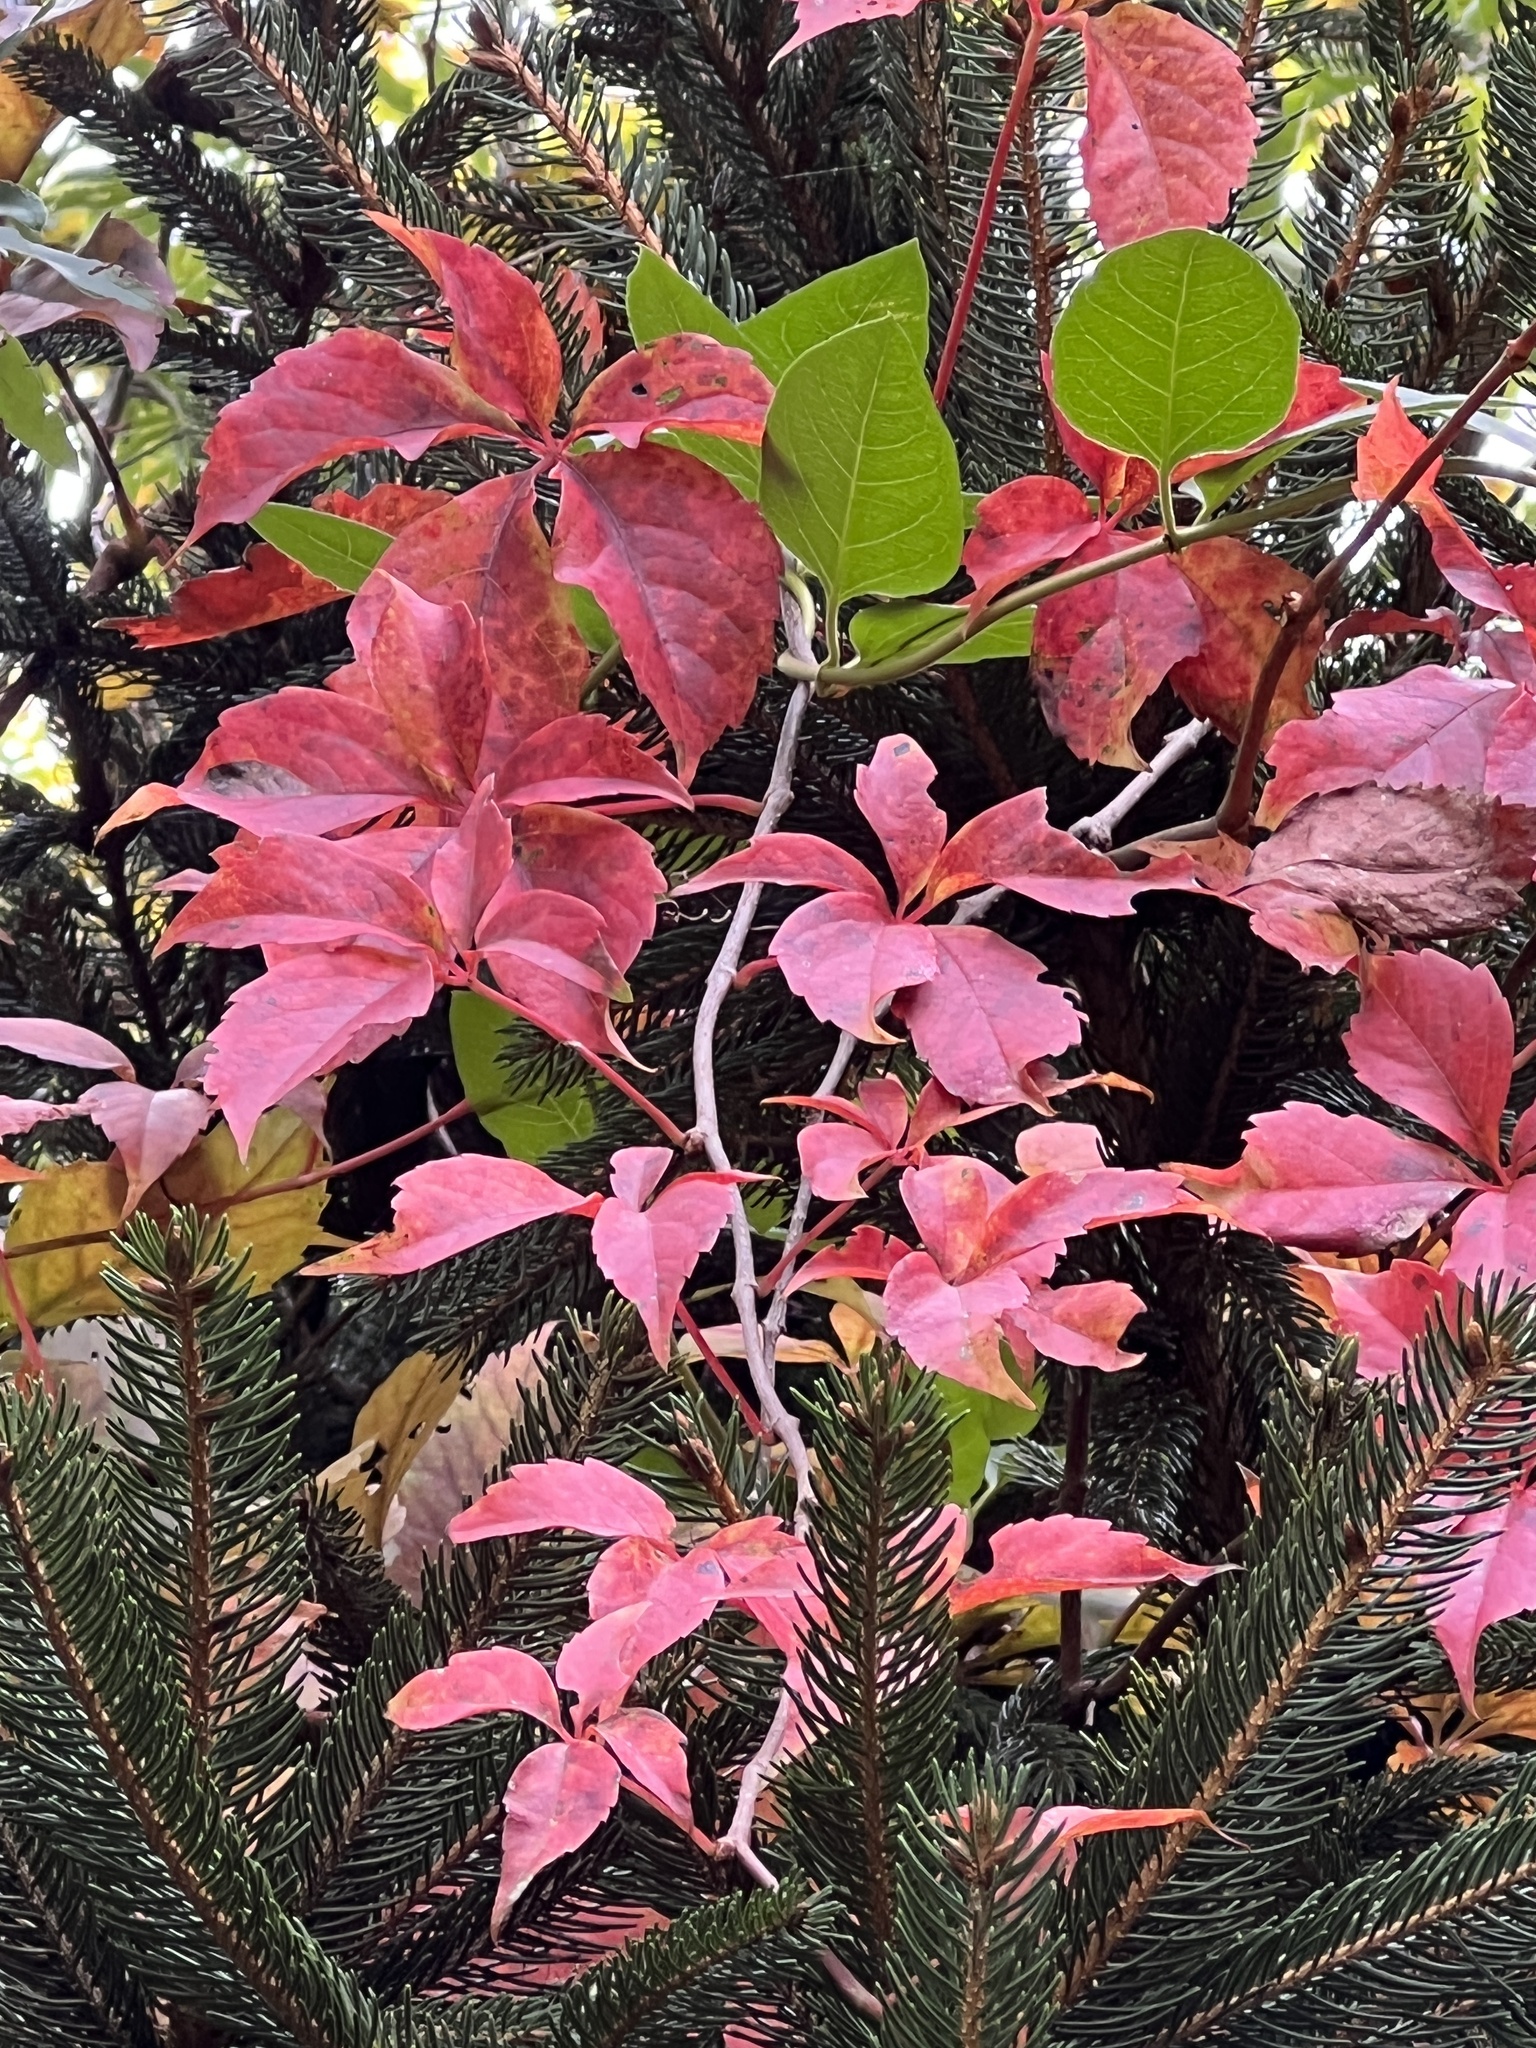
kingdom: Plantae
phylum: Tracheophyta
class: Magnoliopsida
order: Vitales
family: Vitaceae
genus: Parthenocissus
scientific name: Parthenocissus quinquefolia
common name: Virginia-creeper
